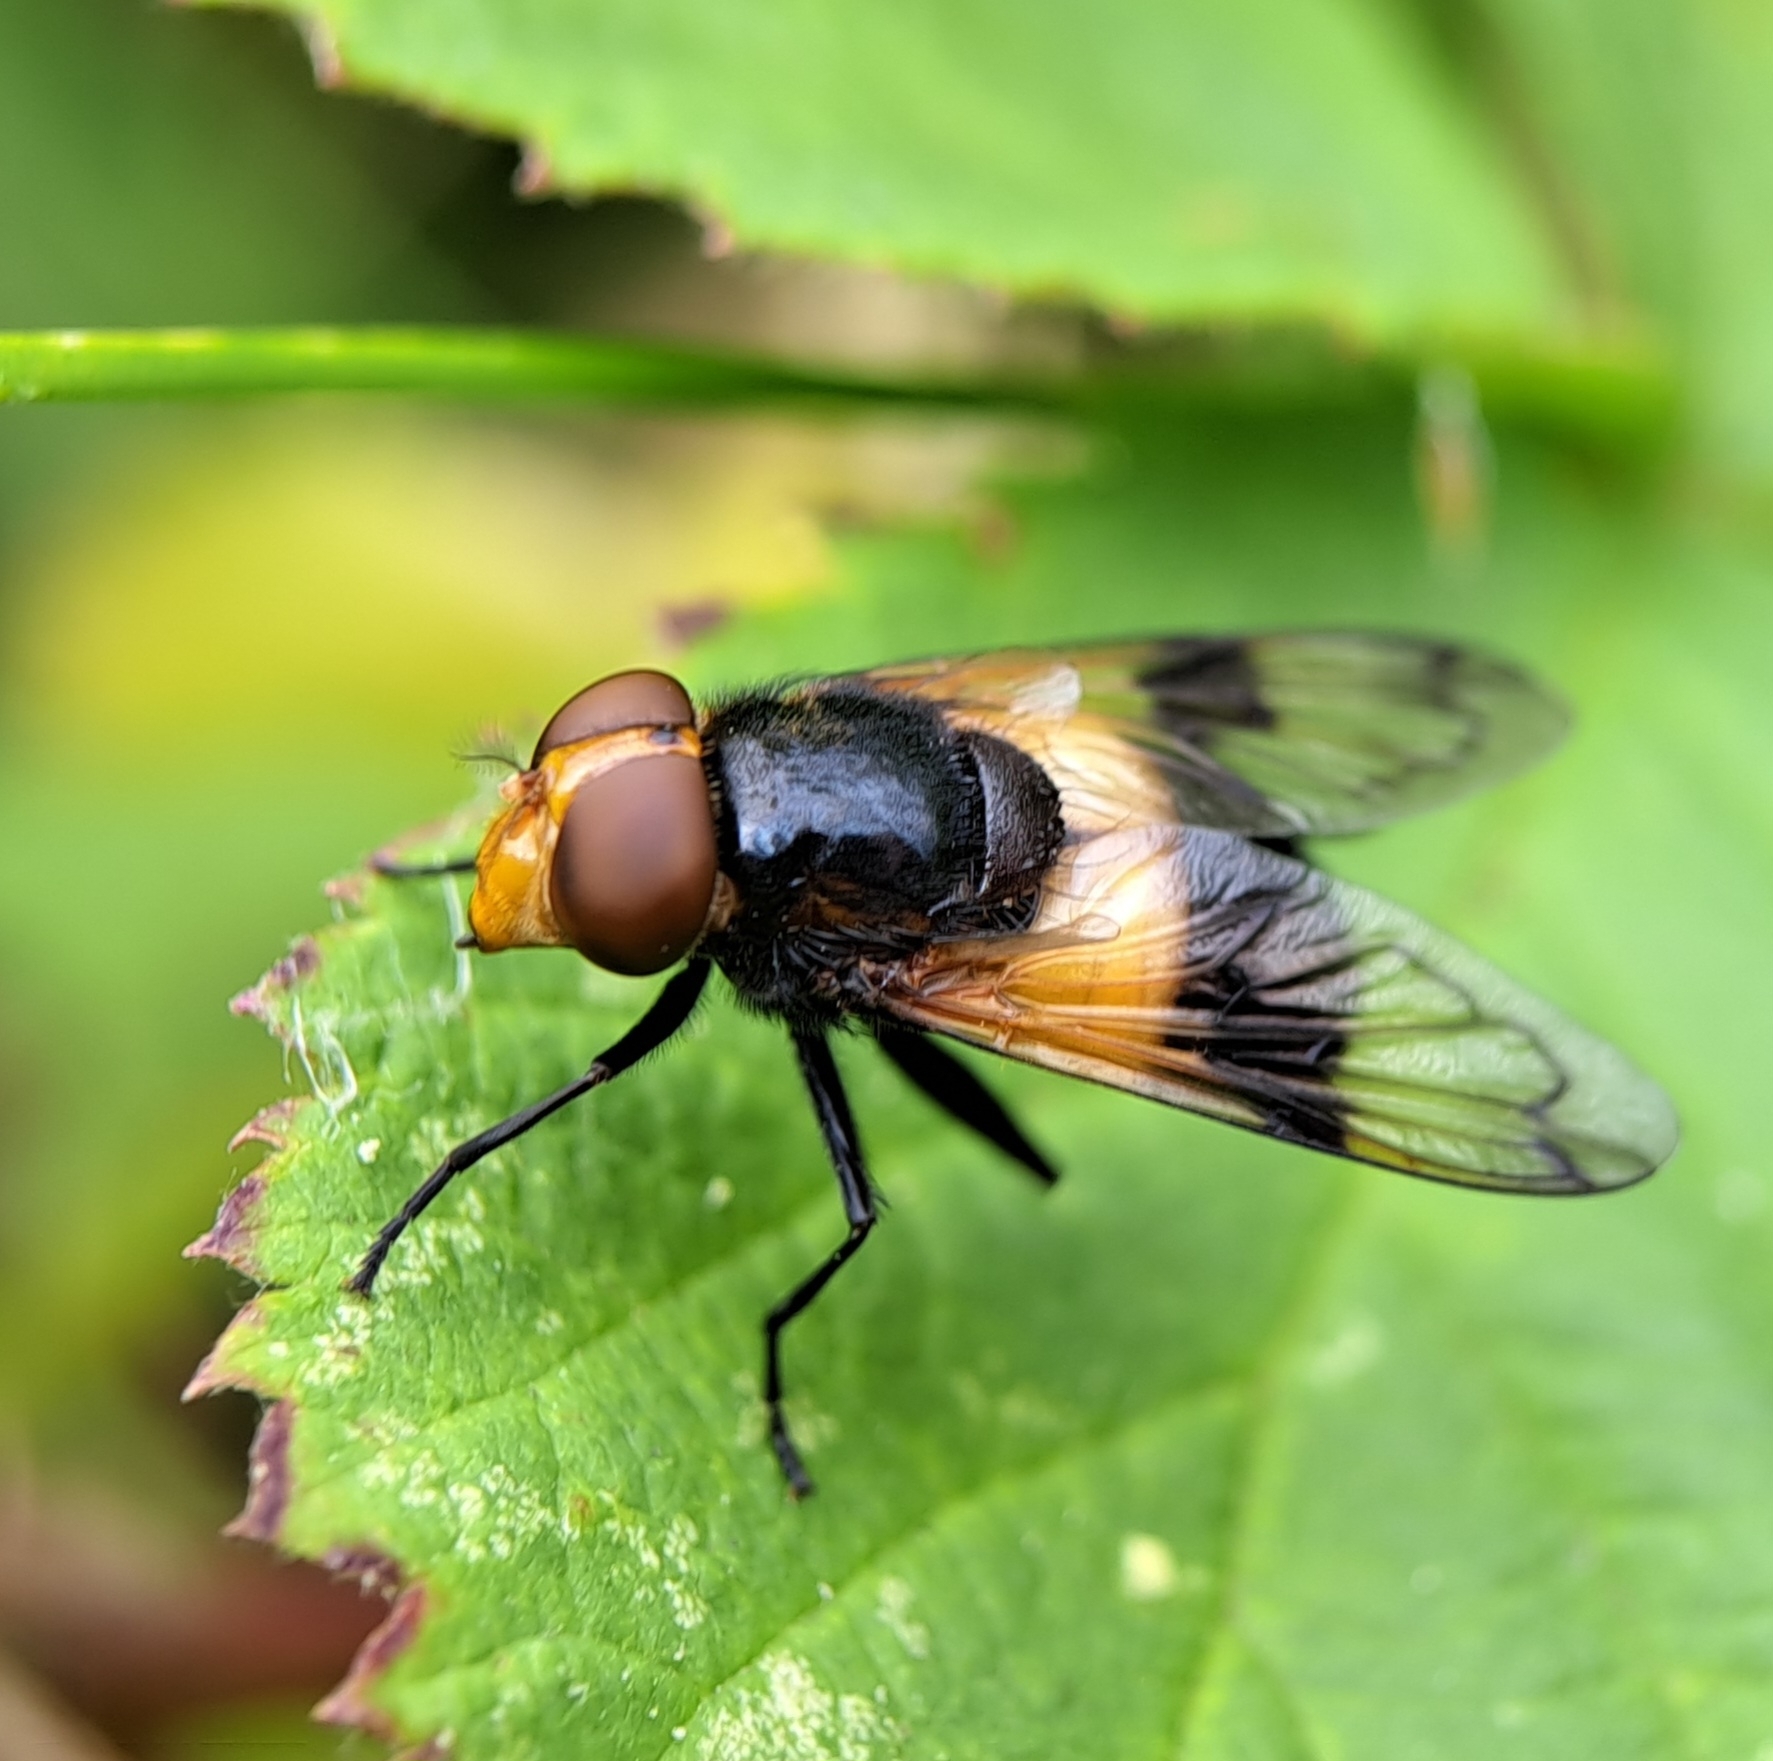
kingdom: Animalia
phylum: Arthropoda
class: Insecta
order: Diptera
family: Syrphidae
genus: Volucella
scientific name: Volucella pellucens
